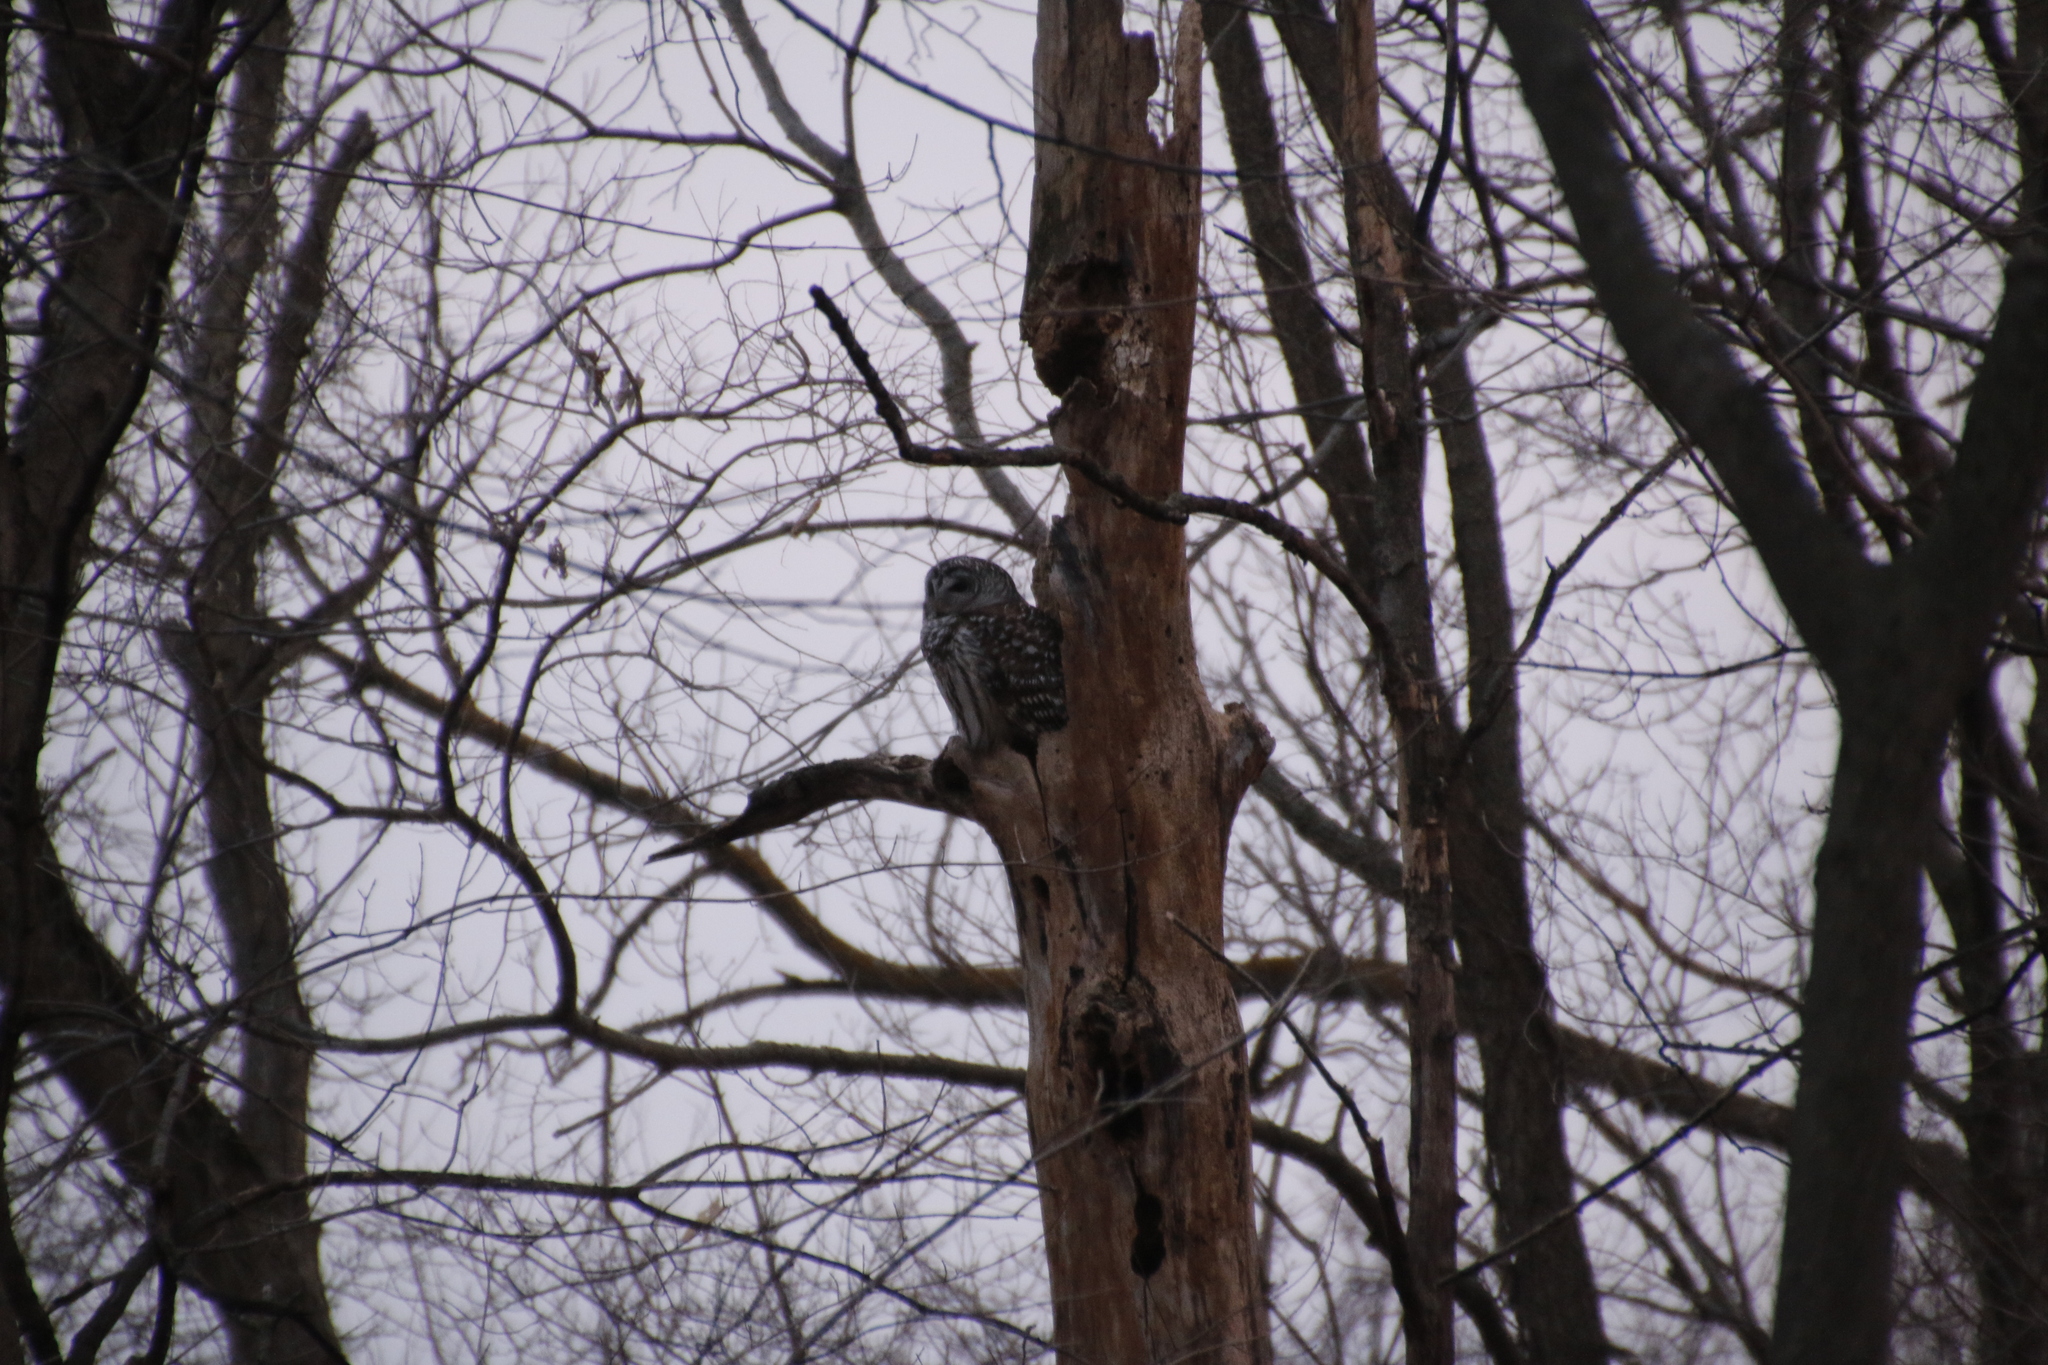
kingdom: Animalia
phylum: Chordata
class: Aves
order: Strigiformes
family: Strigidae
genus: Strix
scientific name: Strix varia
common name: Barred owl
